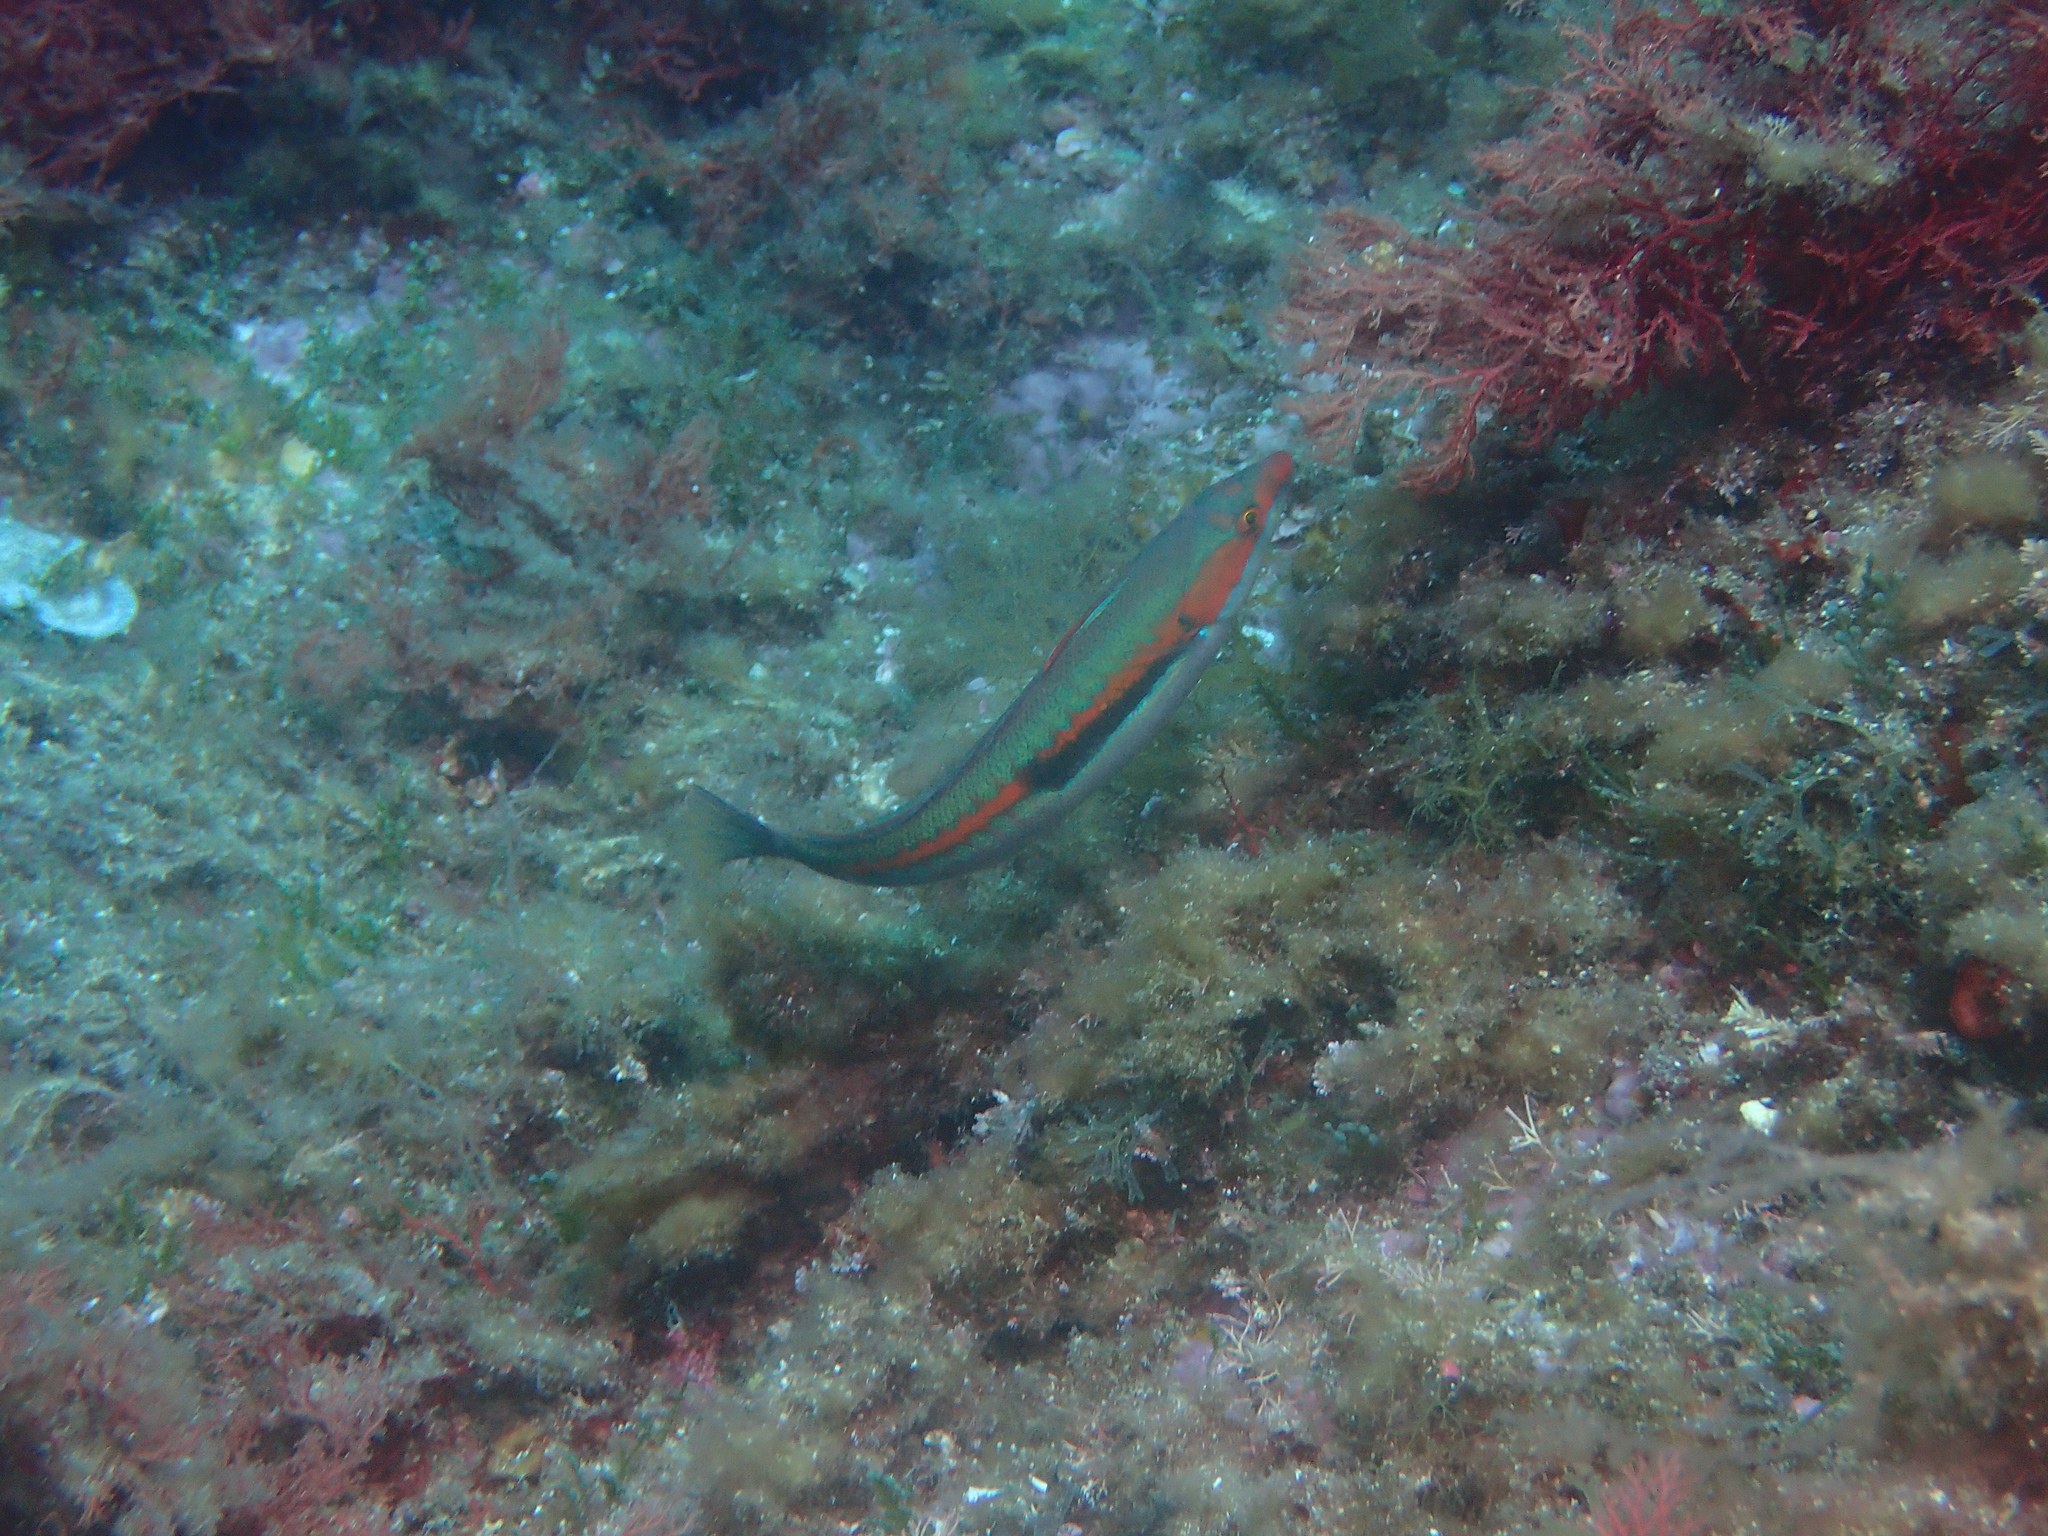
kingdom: Animalia
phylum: Chordata
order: Perciformes
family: Labridae
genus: Coris
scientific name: Coris julis
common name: Rainbow wrasse
